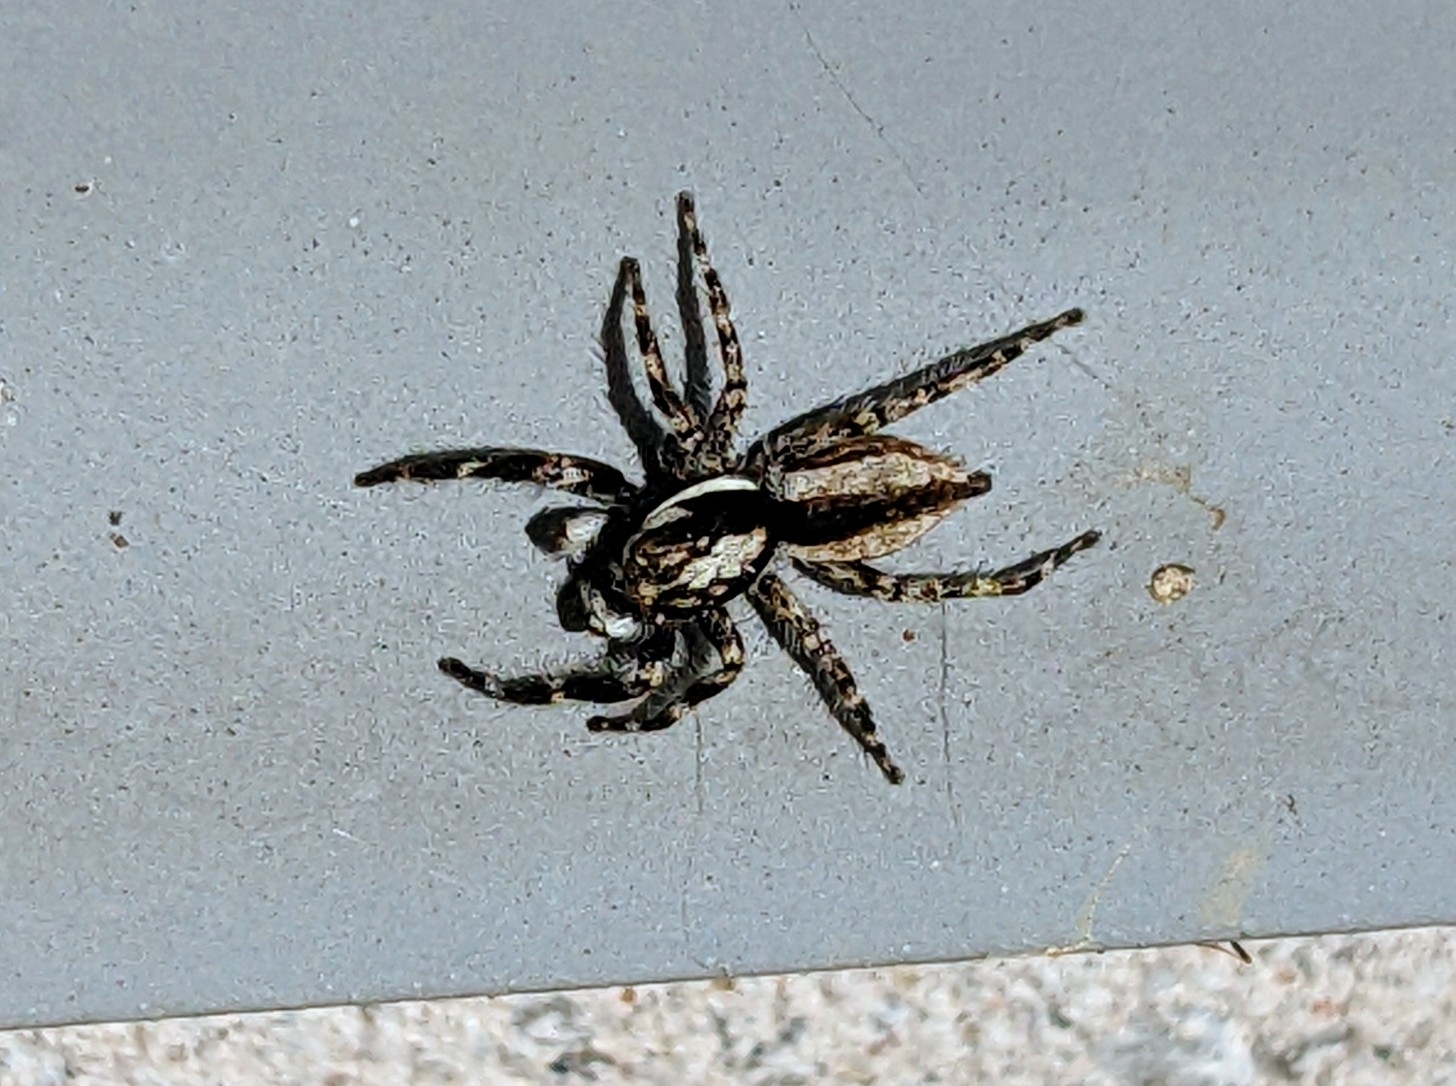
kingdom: Animalia
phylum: Arthropoda
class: Arachnida
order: Araneae
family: Salticidae
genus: Menemerus
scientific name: Menemerus bivittatus
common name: Gray wall jumper
